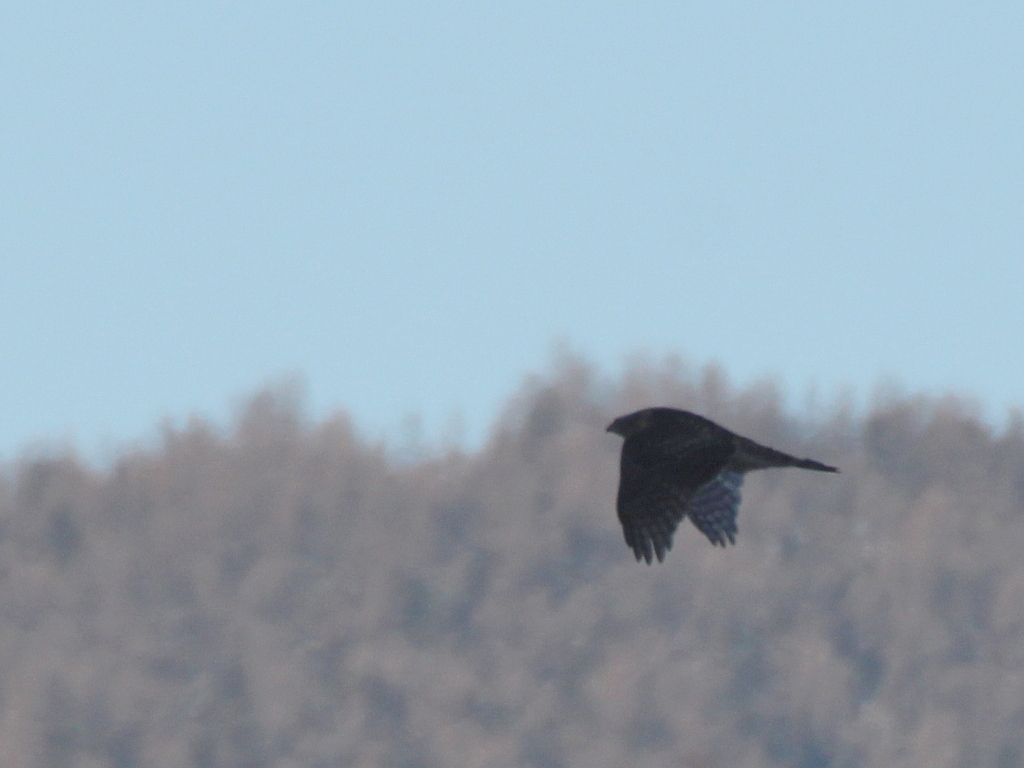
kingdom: Animalia
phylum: Chordata
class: Aves
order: Accipitriformes
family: Accipitridae
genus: Accipiter
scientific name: Accipiter gentilis
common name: Northern goshawk
